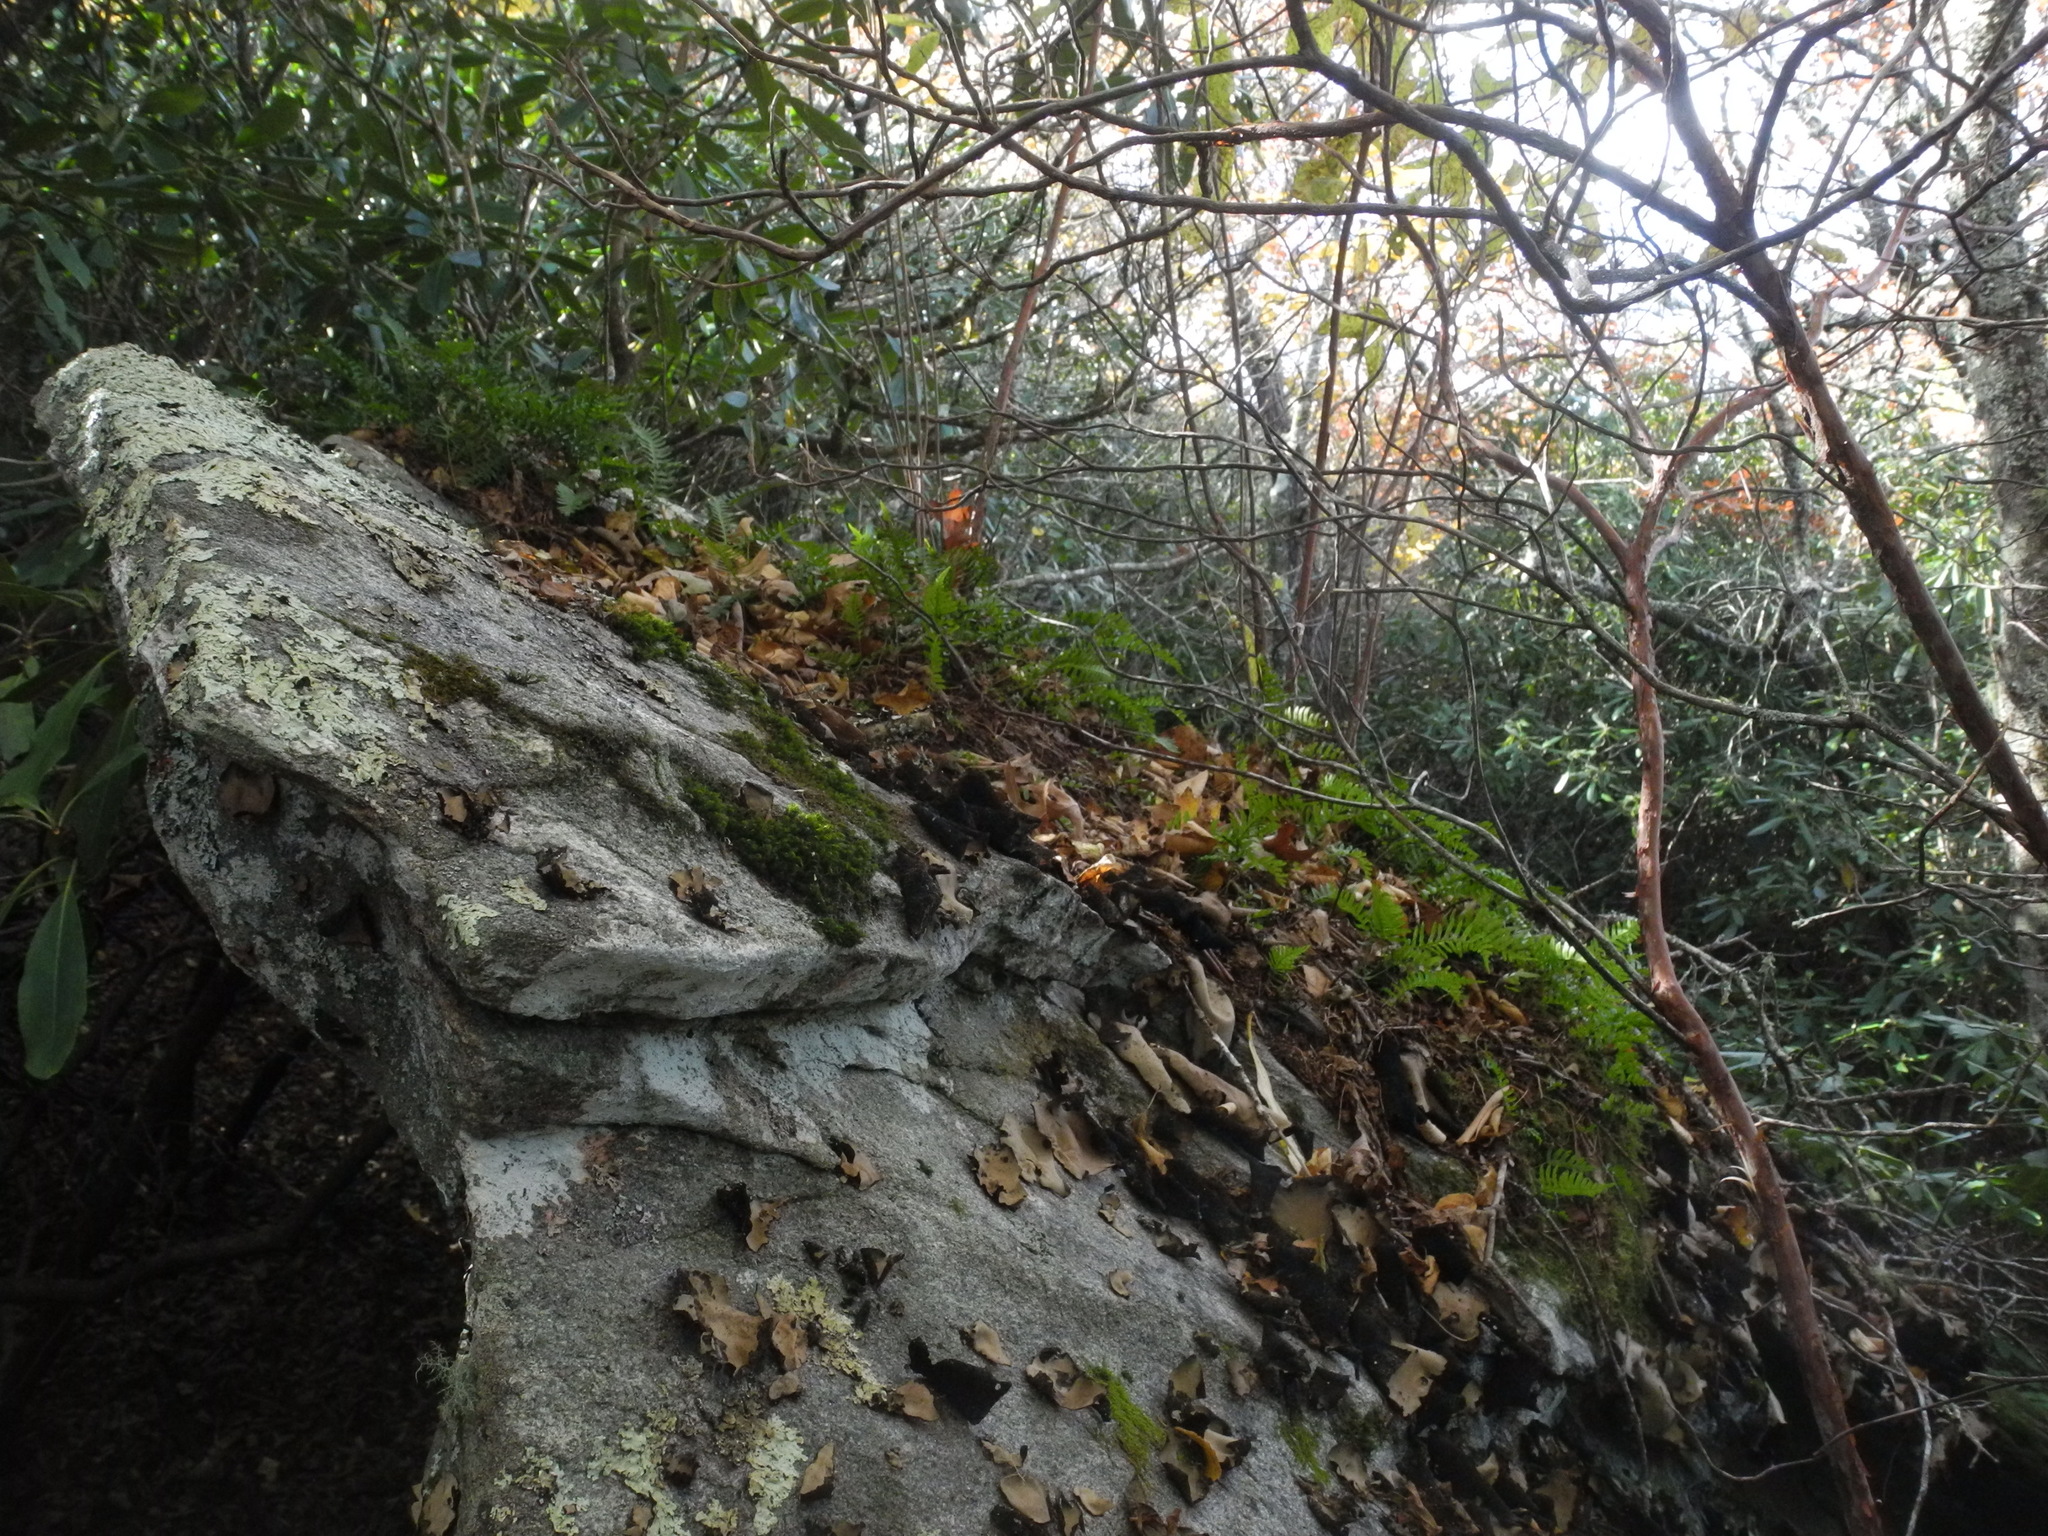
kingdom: Plantae
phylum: Tracheophyta
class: Polypodiopsida
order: Polypodiales
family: Polypodiaceae
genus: Polypodium
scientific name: Polypodium virginianum
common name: American wall fern
